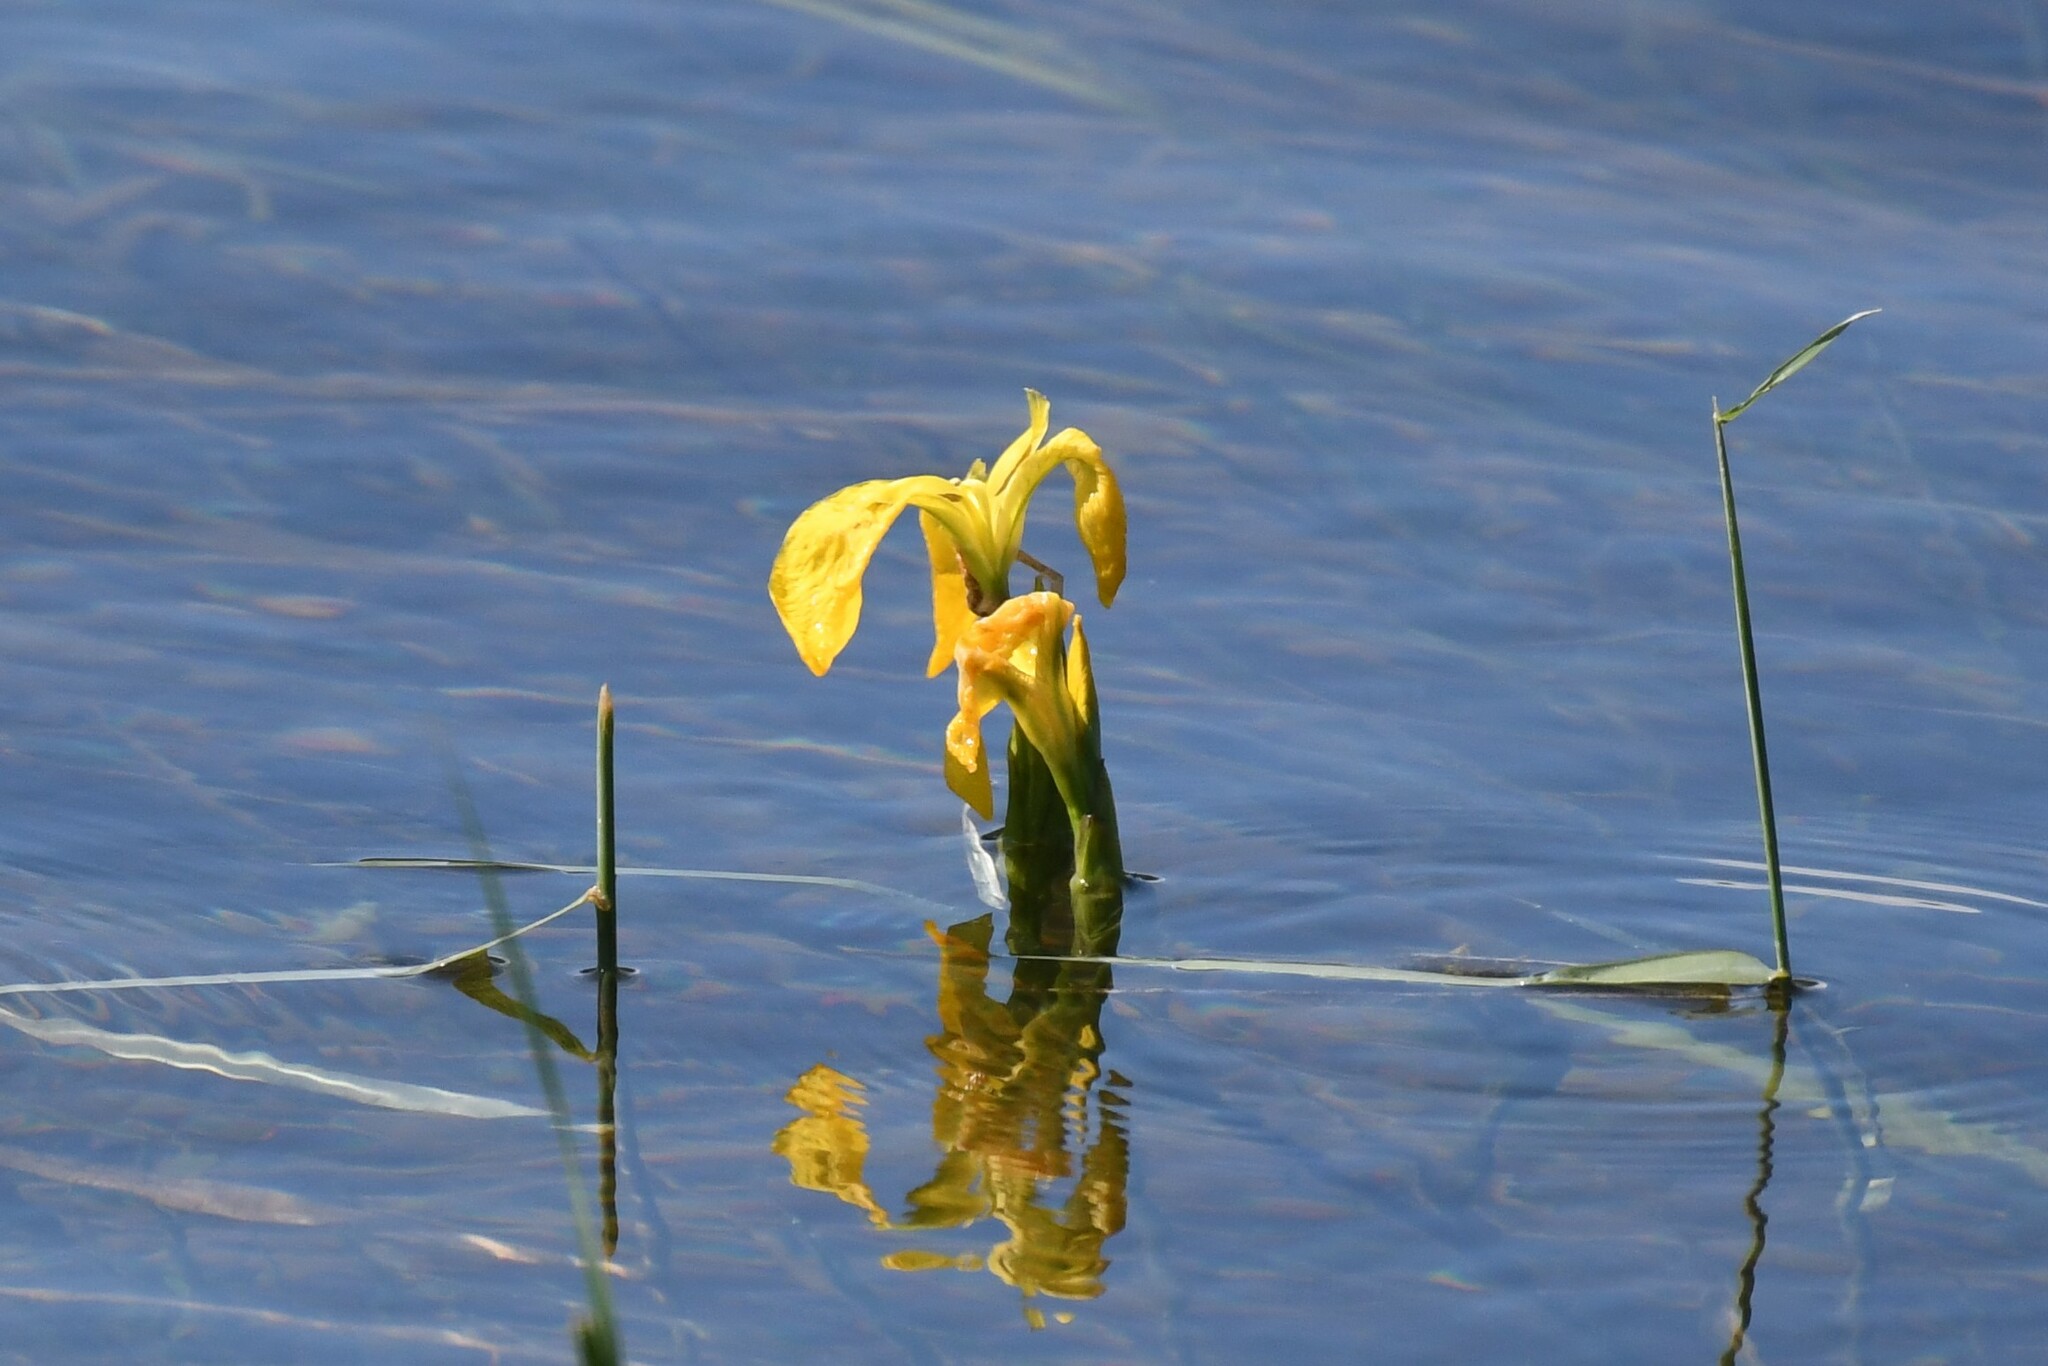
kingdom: Plantae
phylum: Tracheophyta
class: Liliopsida
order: Asparagales
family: Iridaceae
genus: Iris
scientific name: Iris pseudacorus
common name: Yellow flag
